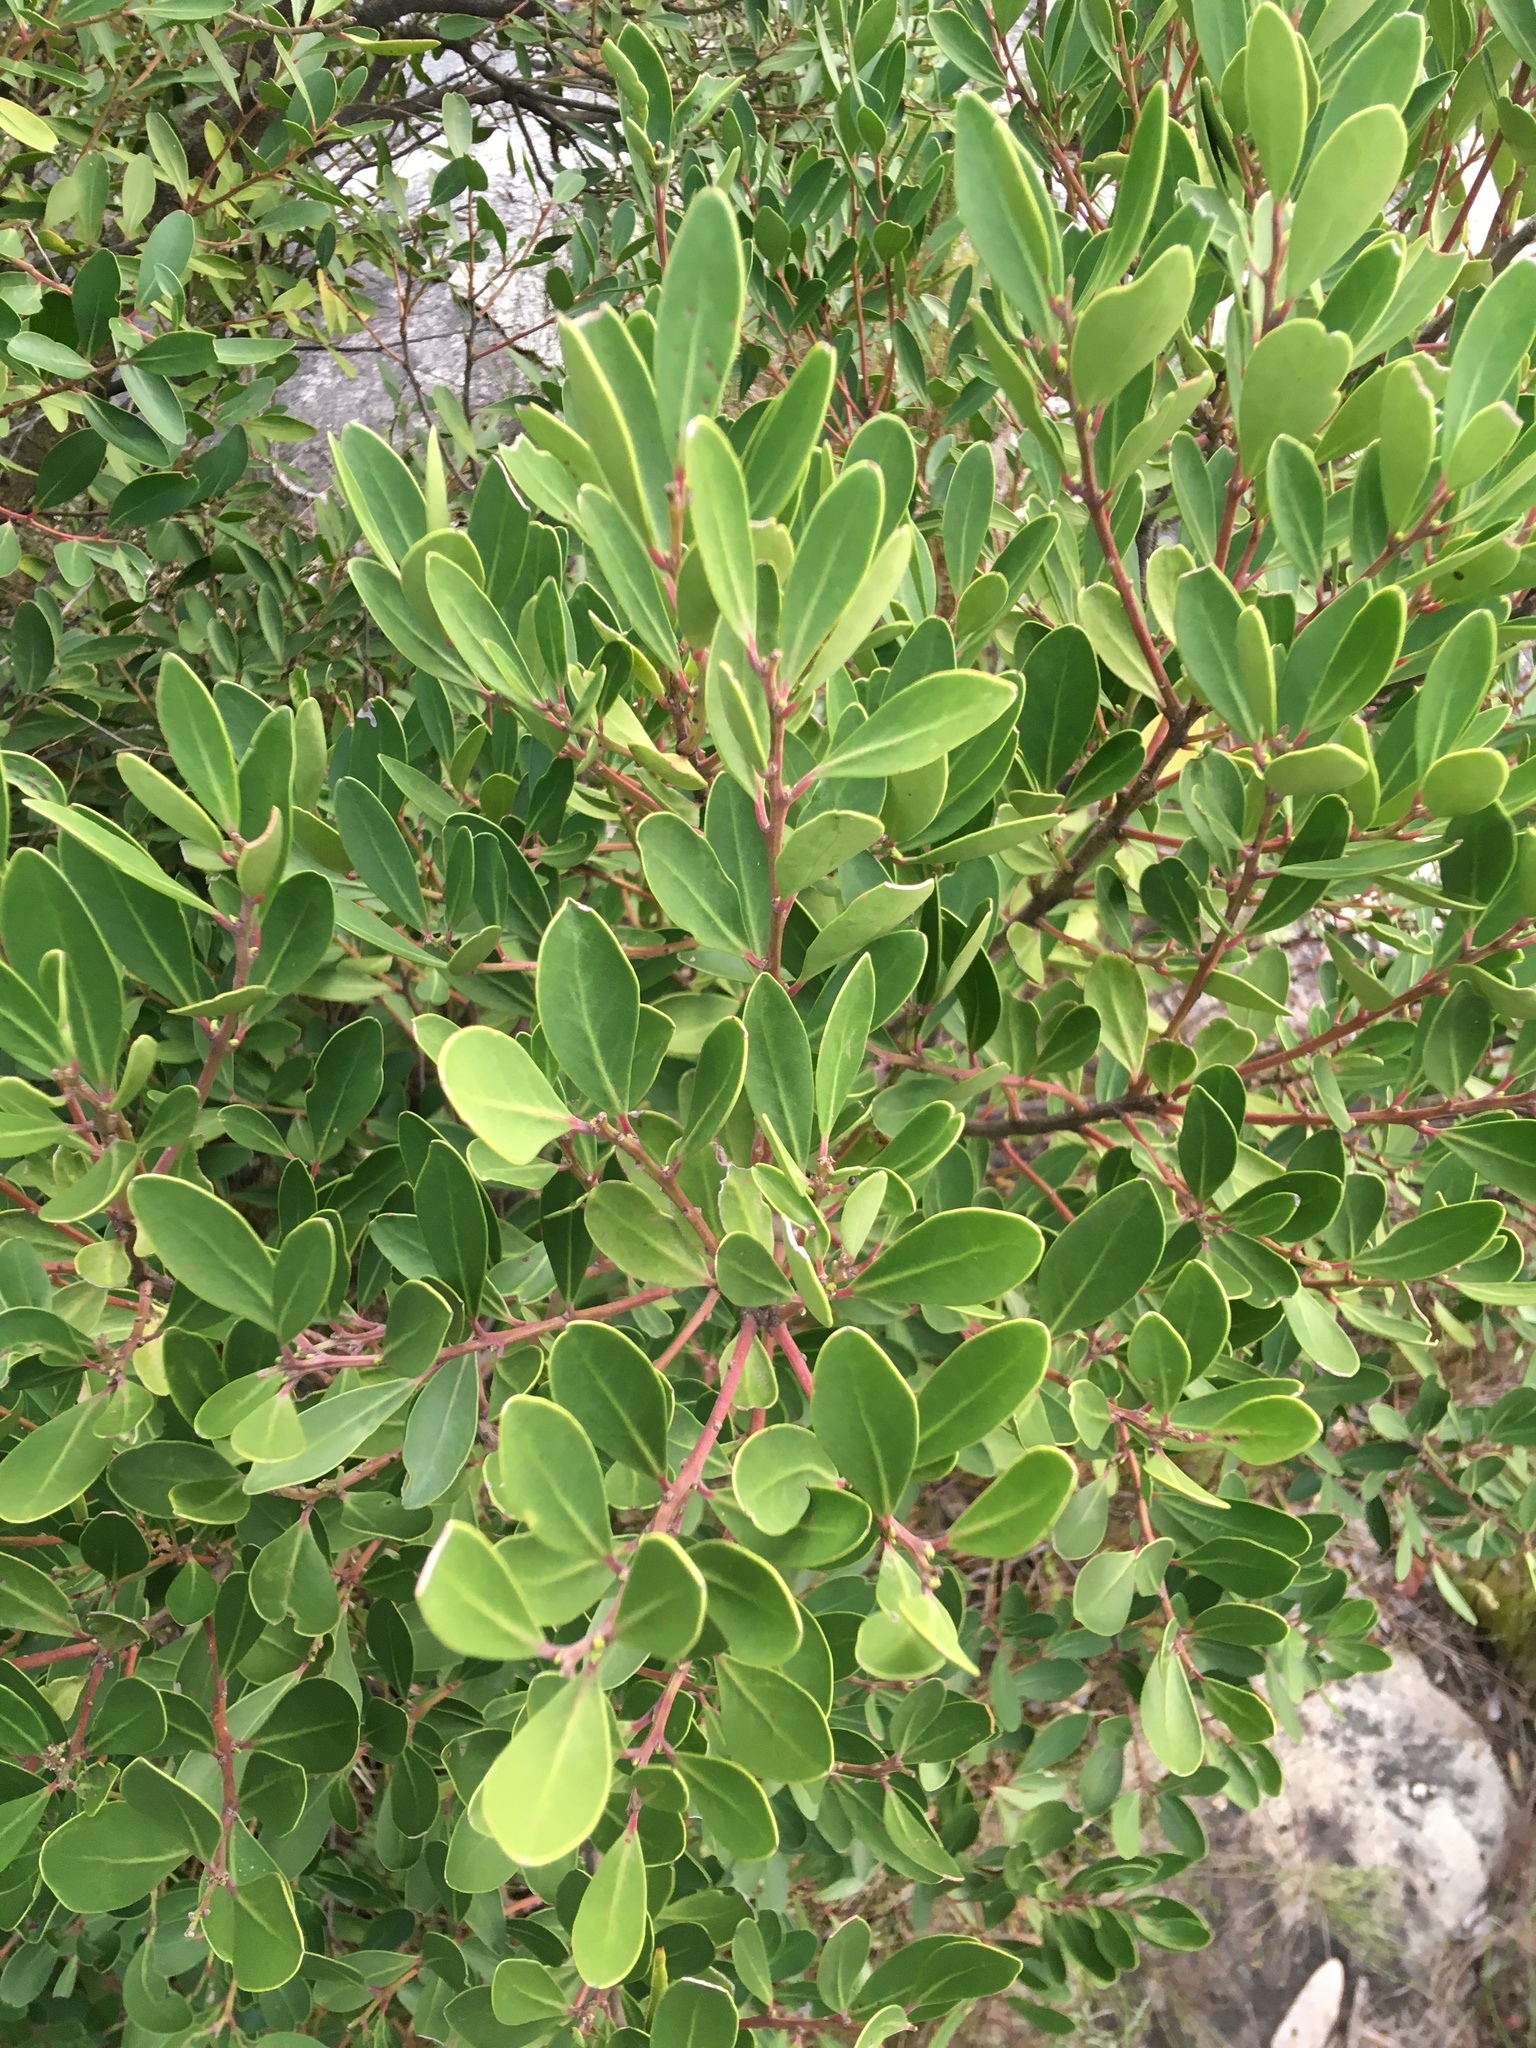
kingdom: Plantae
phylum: Tracheophyta
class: Magnoliopsida
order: Celastrales
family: Celastraceae
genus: Gymnosporia
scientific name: Gymnosporia laurina
